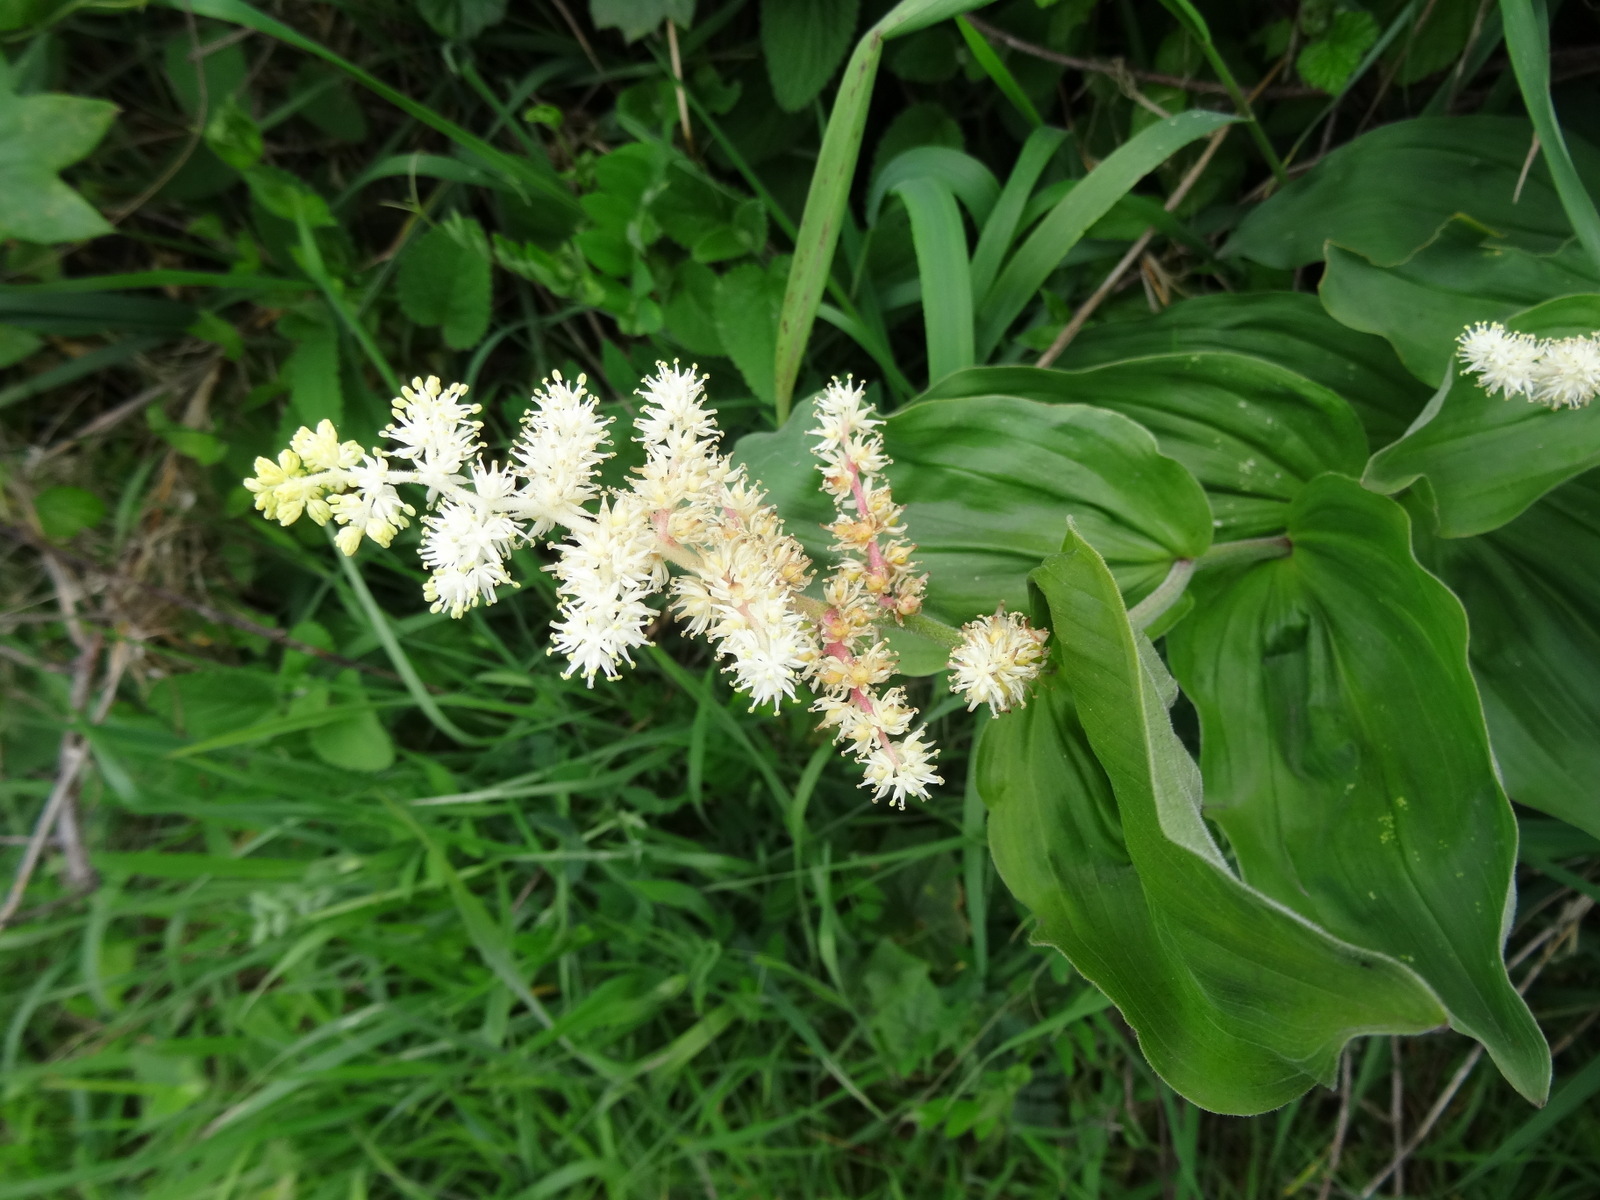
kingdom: Plantae
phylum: Tracheophyta
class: Liliopsida
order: Asparagales
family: Asparagaceae
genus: Maianthemum
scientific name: Maianthemum racemosum
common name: False spikenard
